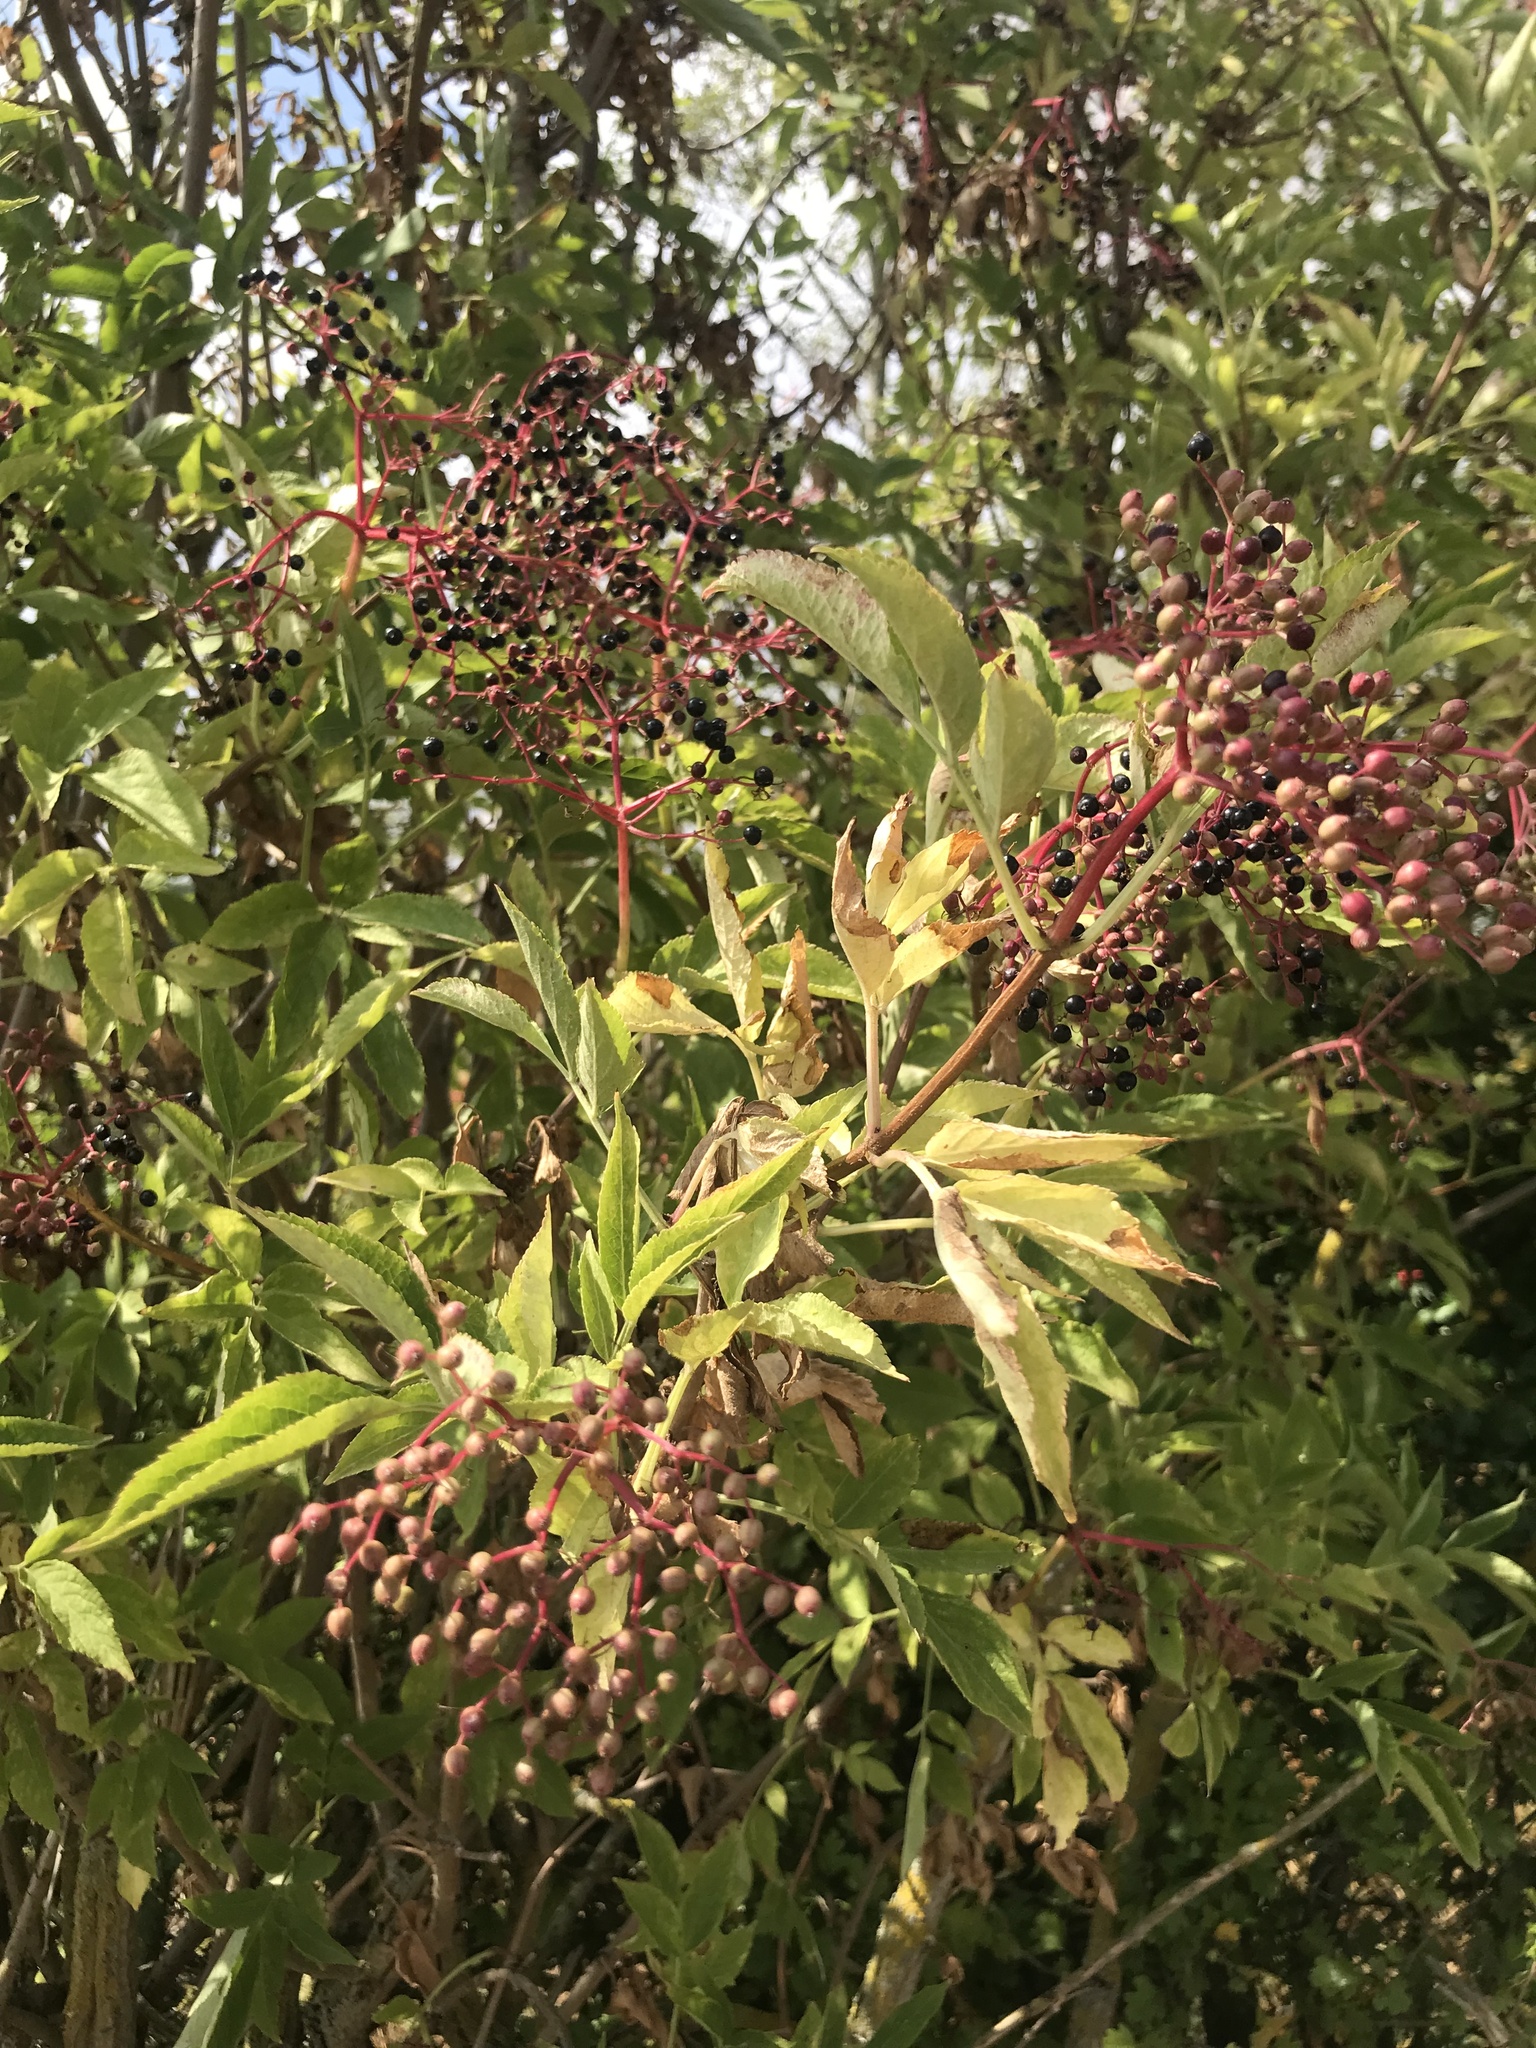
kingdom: Plantae
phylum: Tracheophyta
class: Magnoliopsida
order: Dipsacales
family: Viburnaceae
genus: Sambucus
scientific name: Sambucus nigra
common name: Elder
